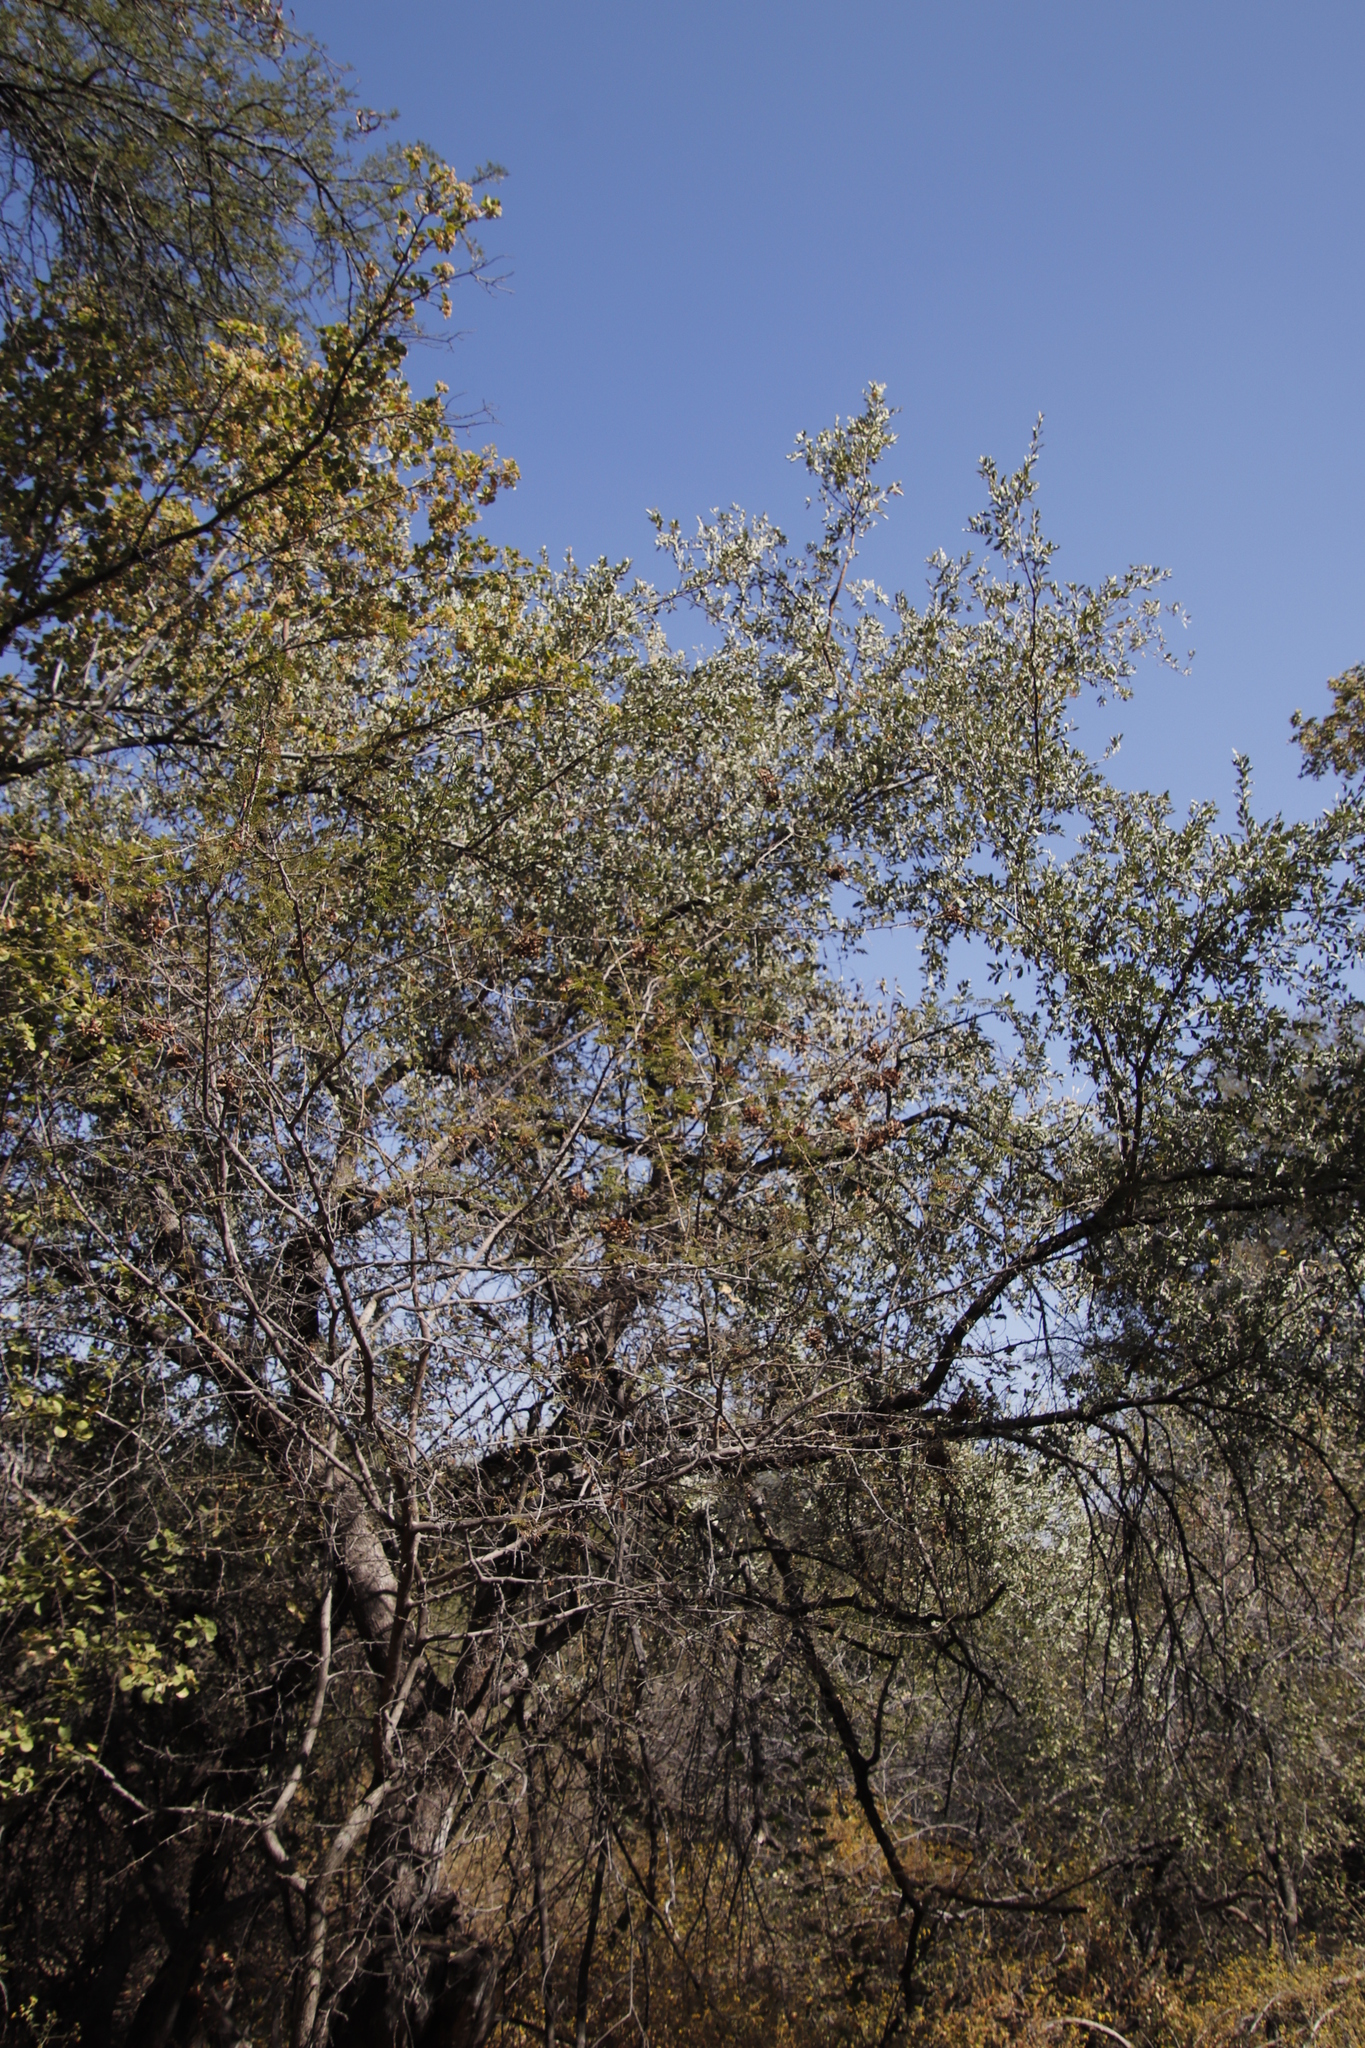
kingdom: Plantae
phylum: Tracheophyta
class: Magnoliopsida
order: Rosales
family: Moraceae
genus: Ficus
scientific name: Ficus sycomorus
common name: Sycomore
